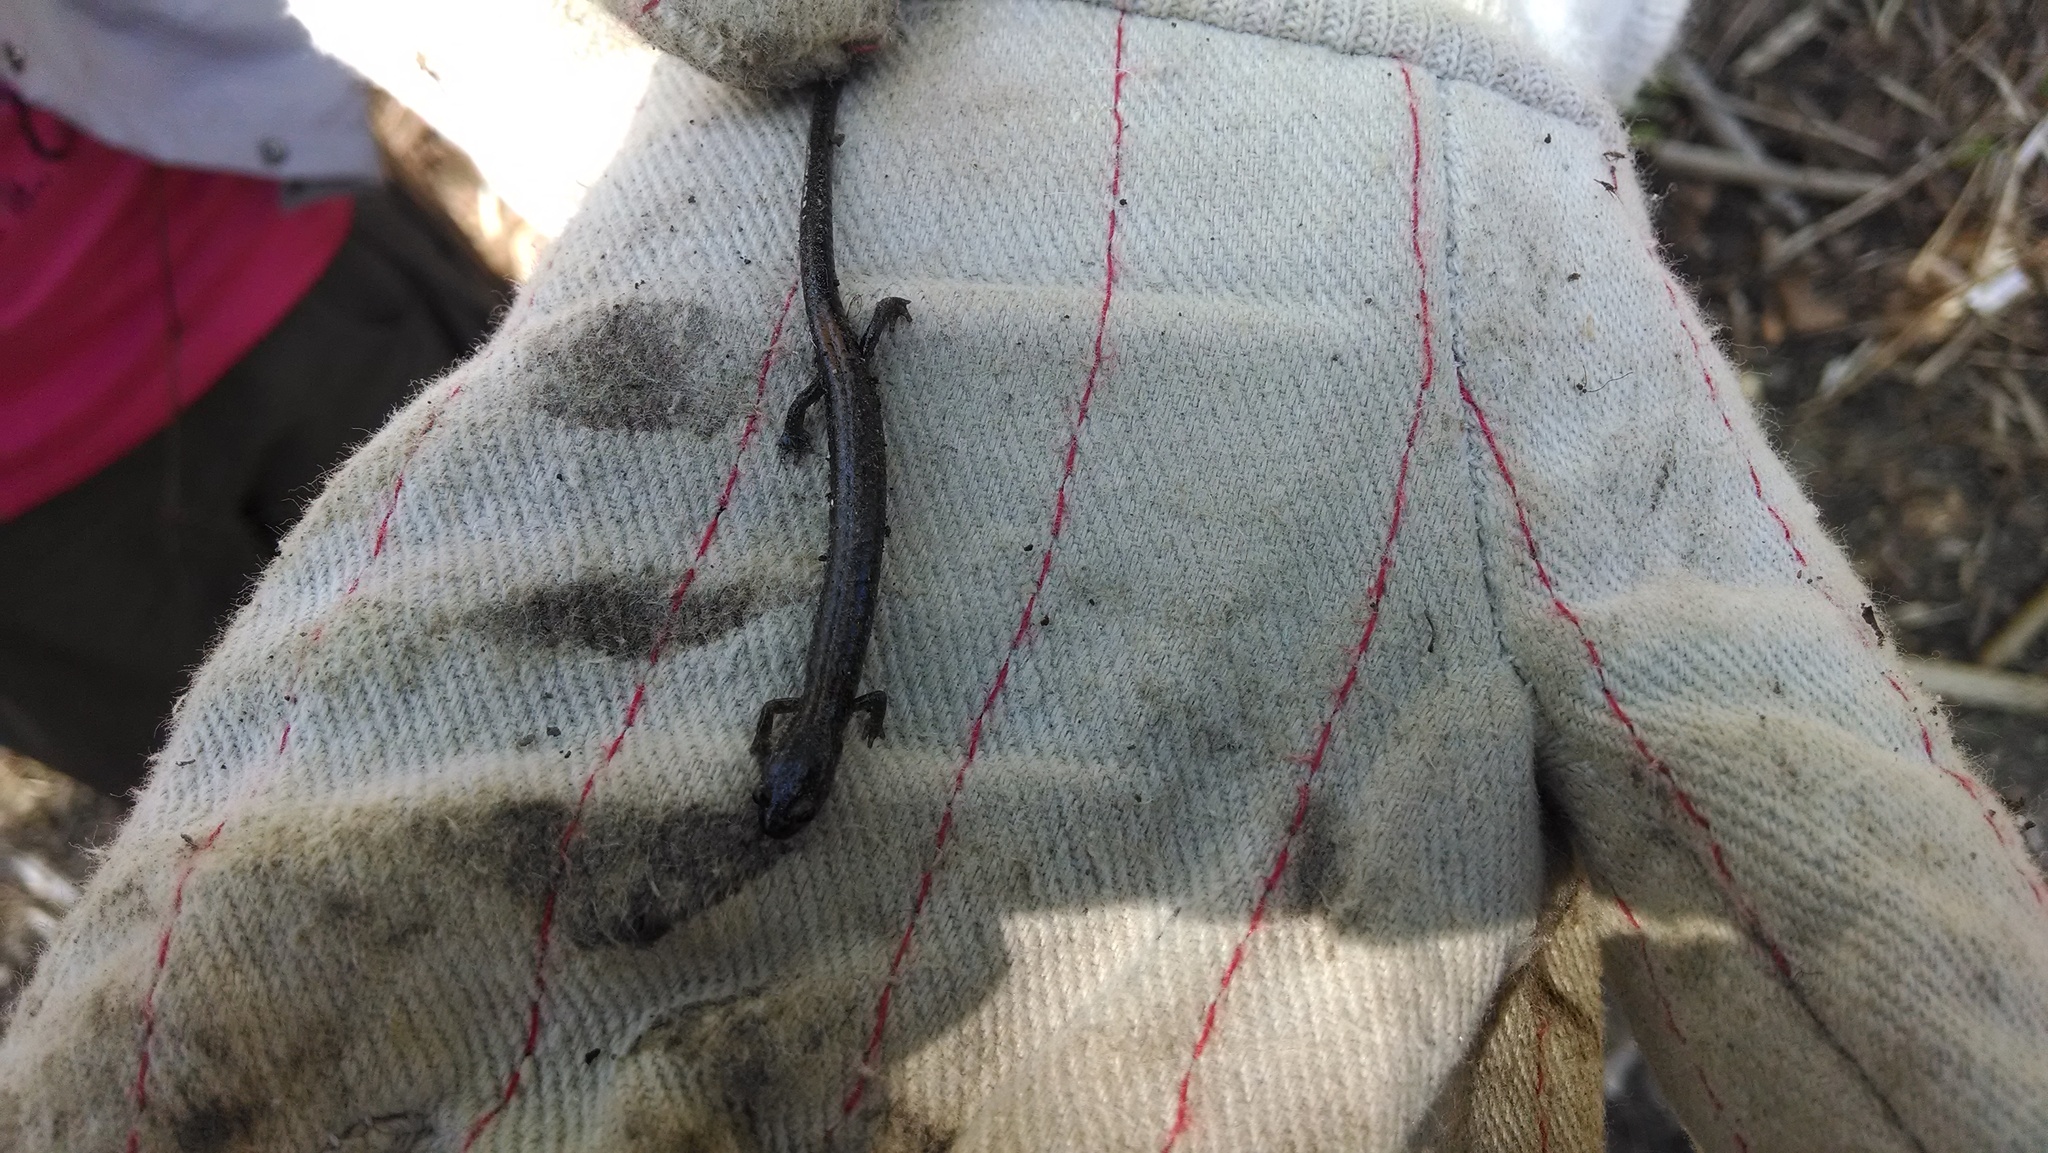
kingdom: Animalia
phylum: Chordata
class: Amphibia
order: Caudata
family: Plethodontidae
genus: Plethodon
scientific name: Plethodon cinereus
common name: Redback salamander
